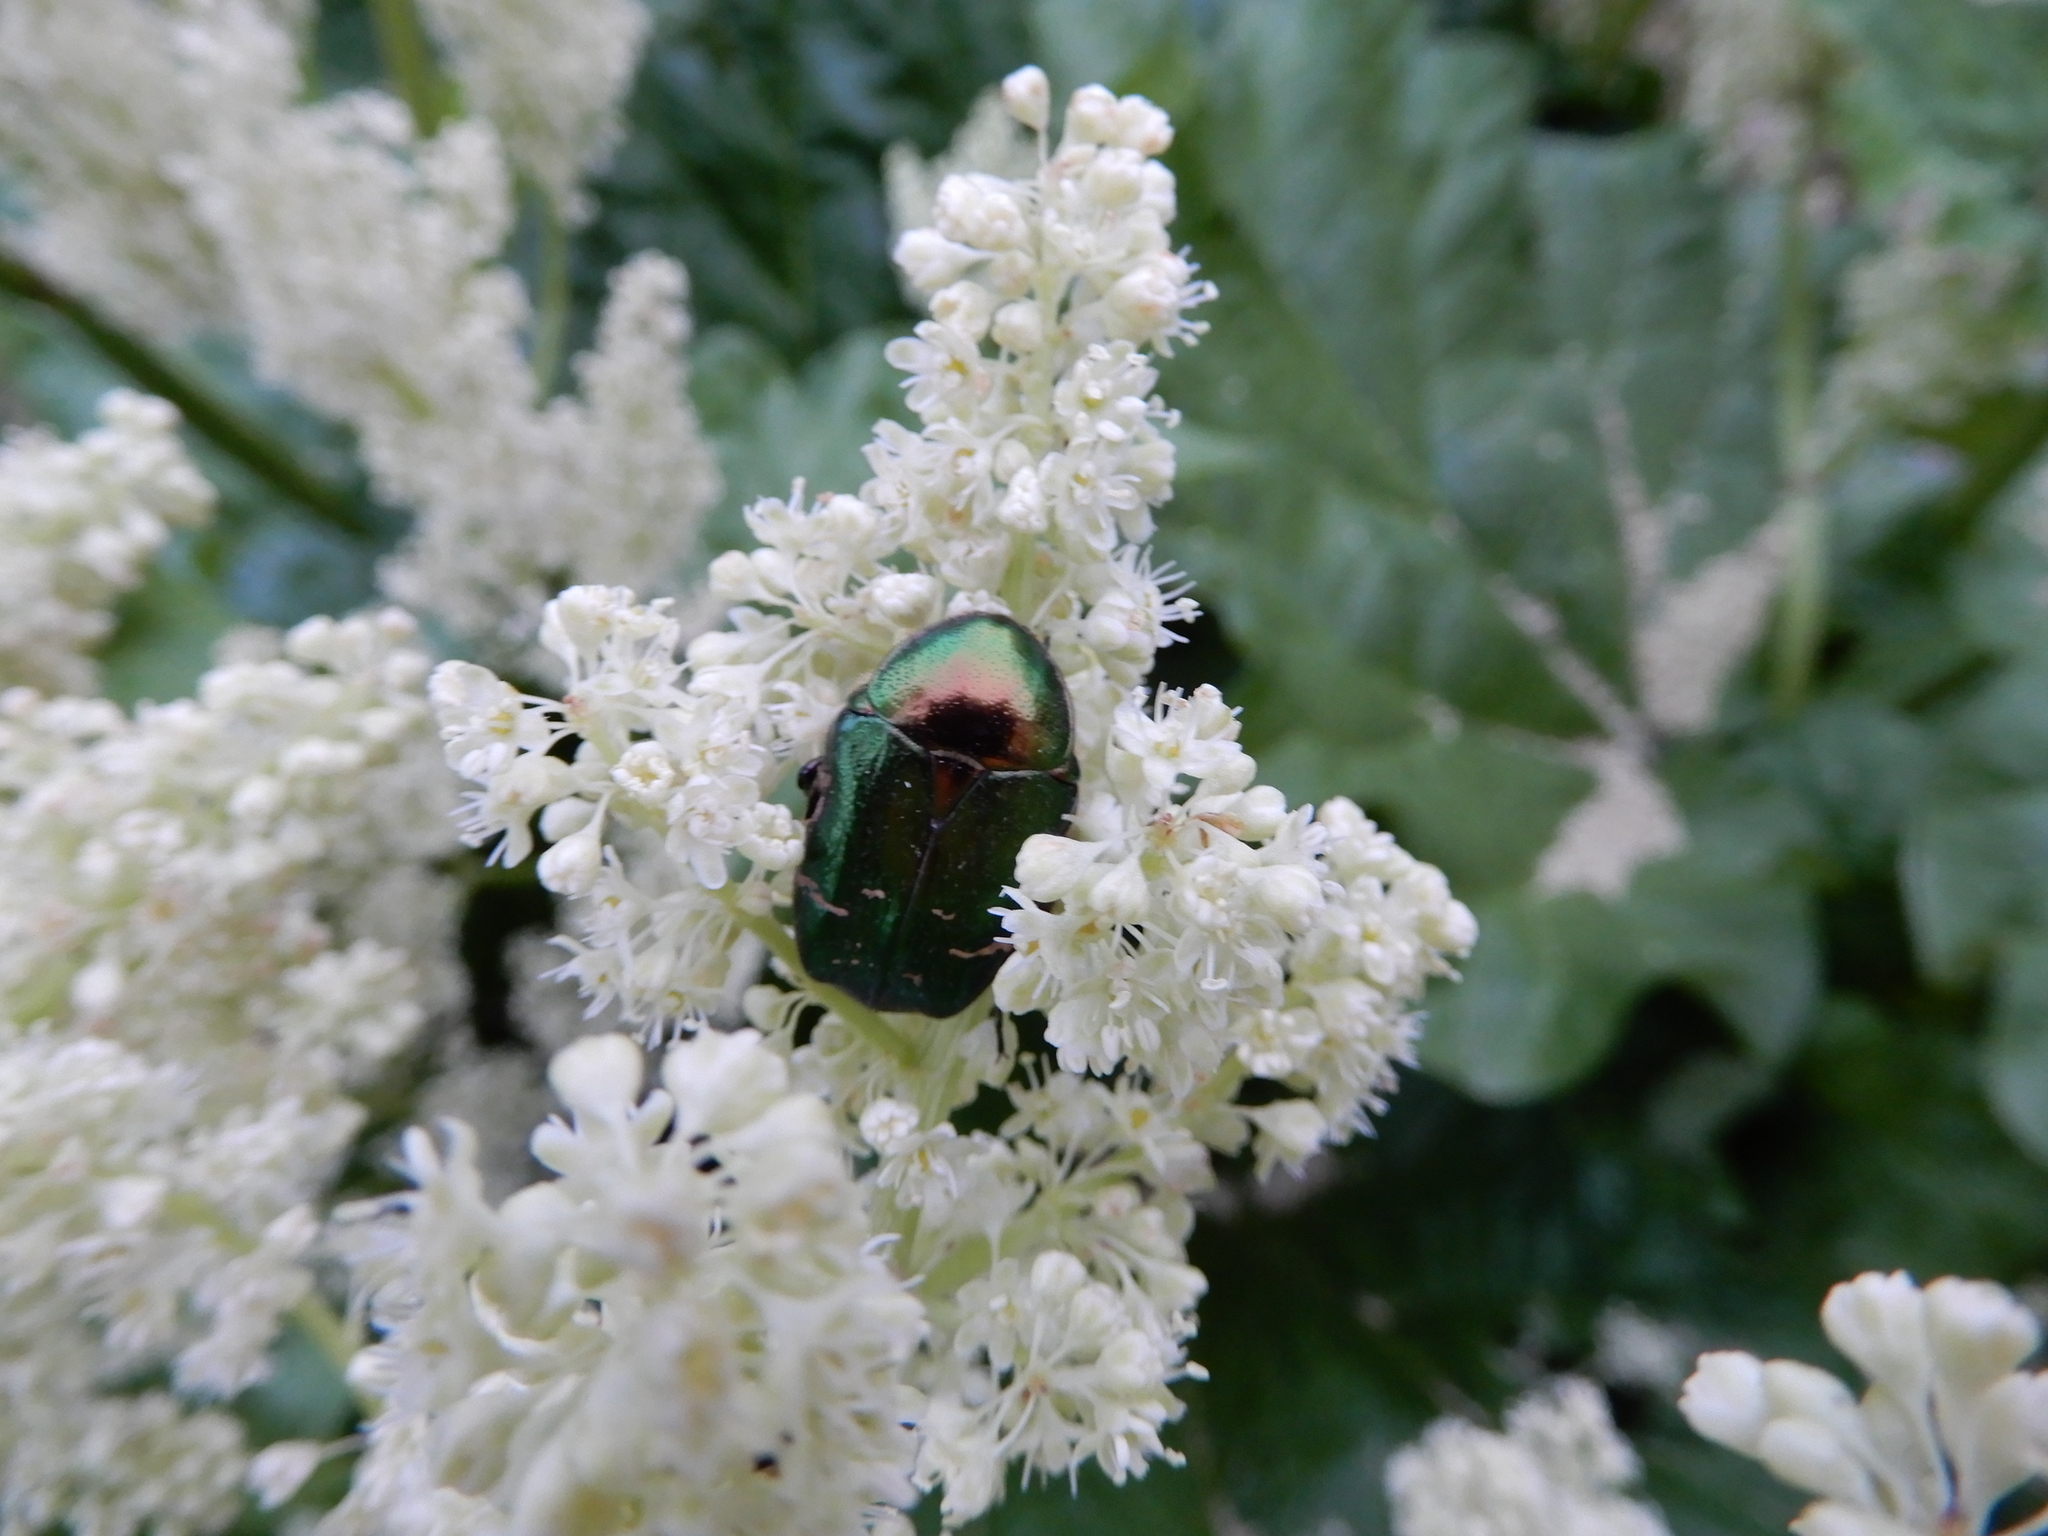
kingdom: Animalia
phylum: Arthropoda
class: Insecta
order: Coleoptera
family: Scarabaeidae
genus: Cetonia
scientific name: Cetonia aurata
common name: Rose chafer
